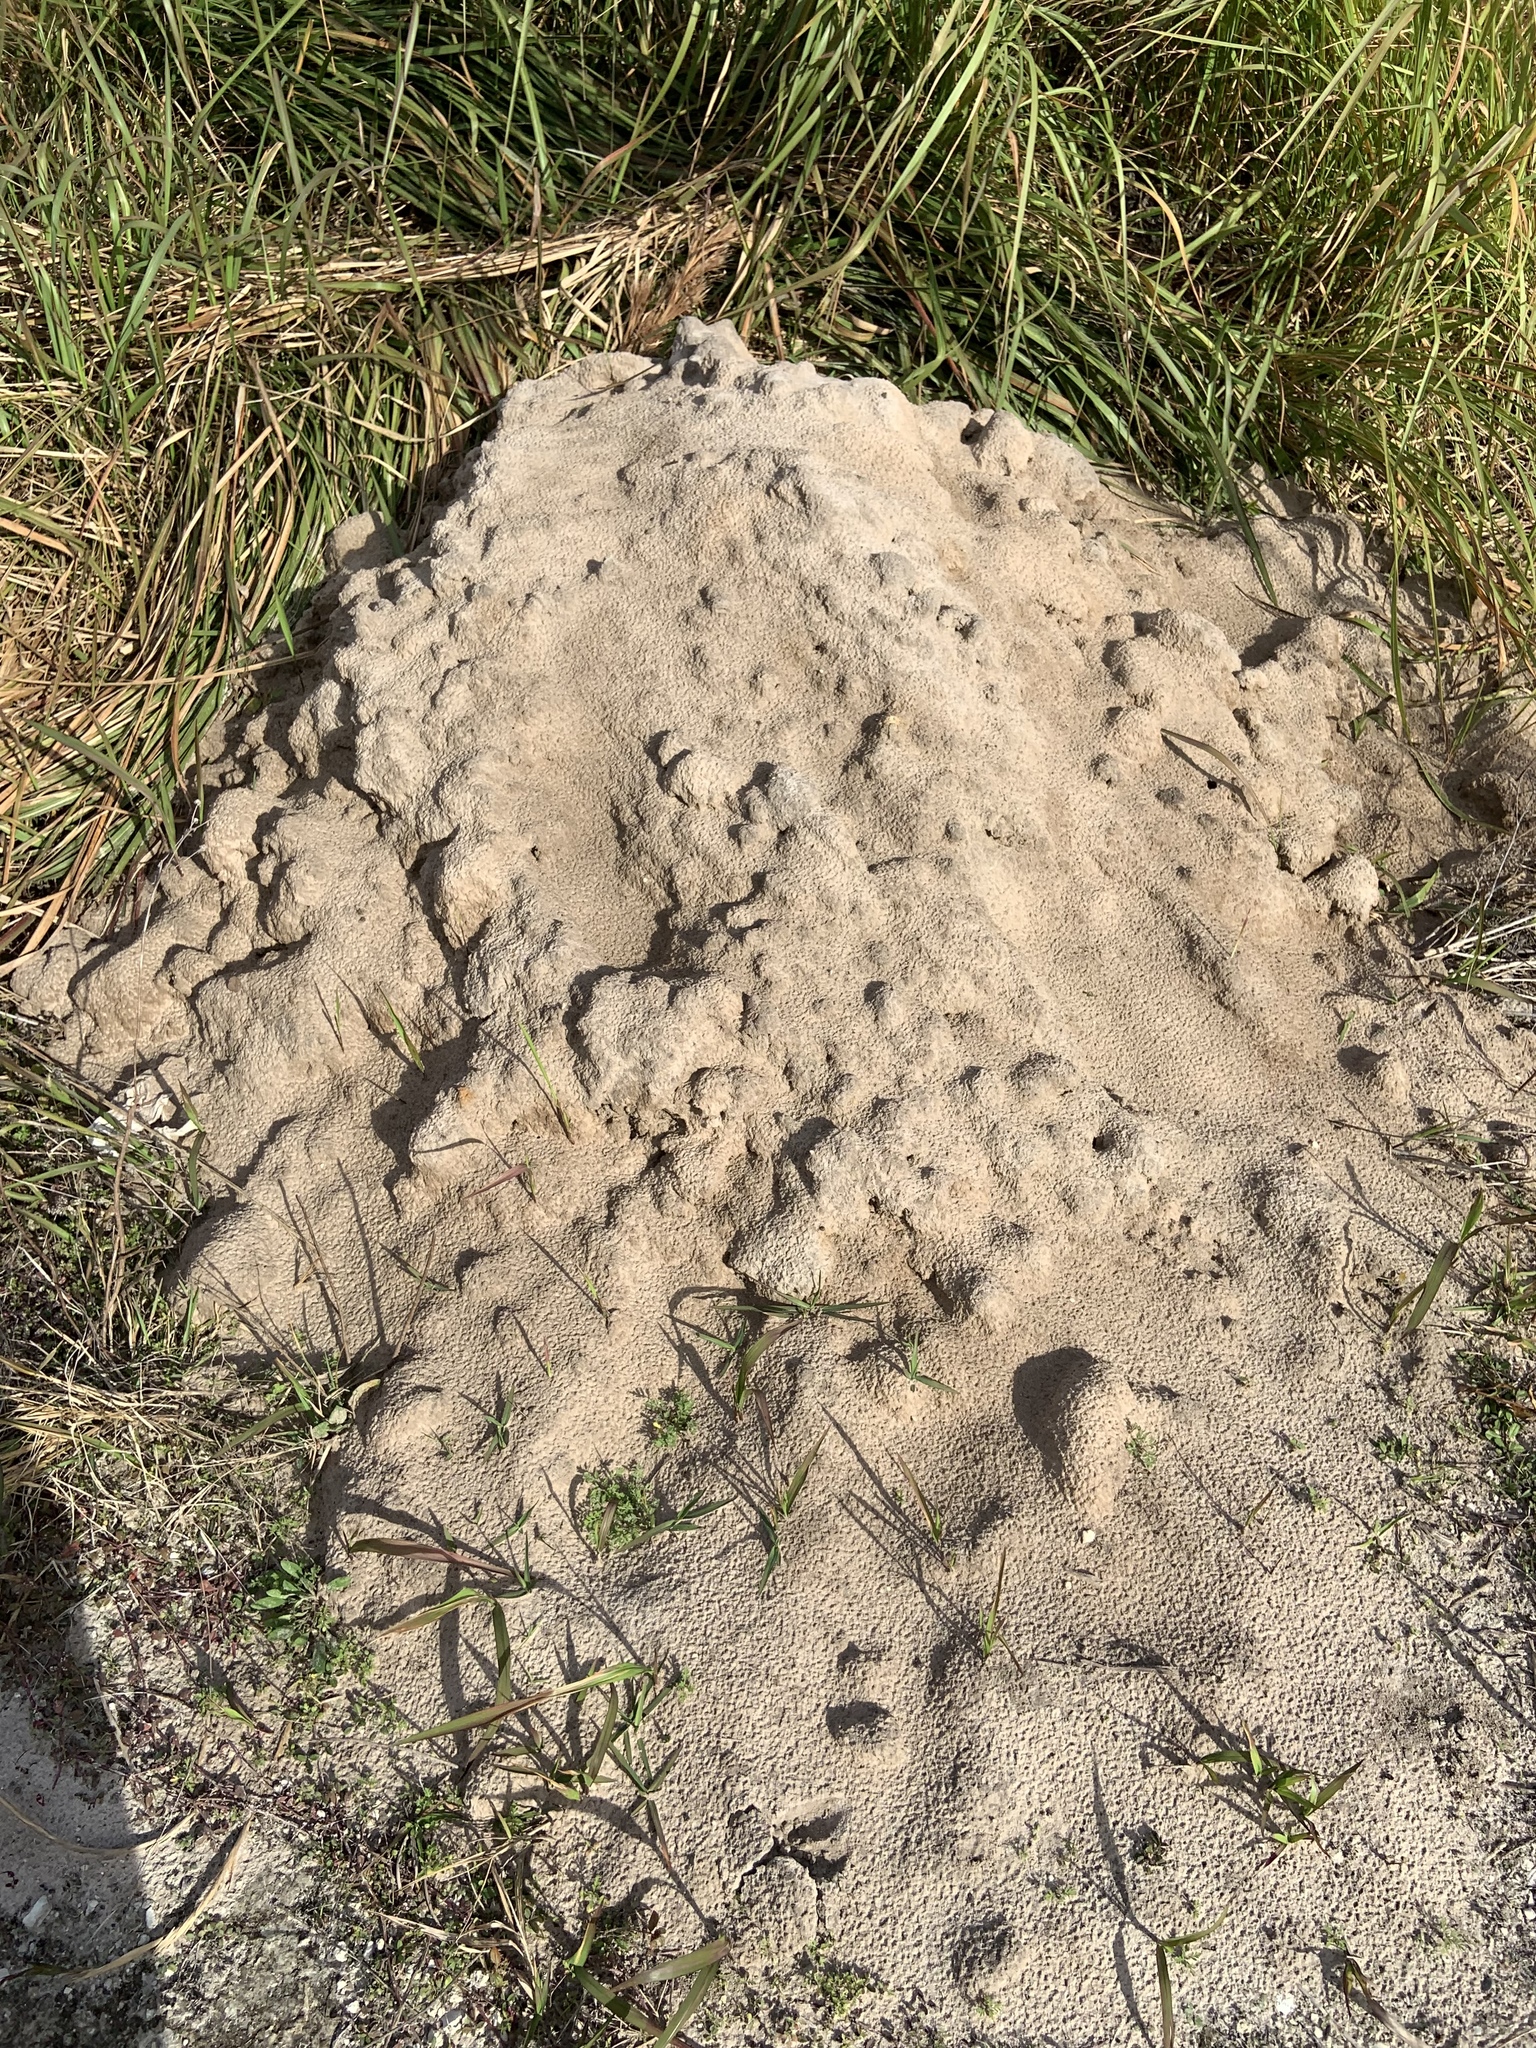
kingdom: Animalia
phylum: Arthropoda
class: Insecta
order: Hymenoptera
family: Formicidae
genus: Solenopsis
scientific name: Solenopsis invicta
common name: Red imported fire ant
